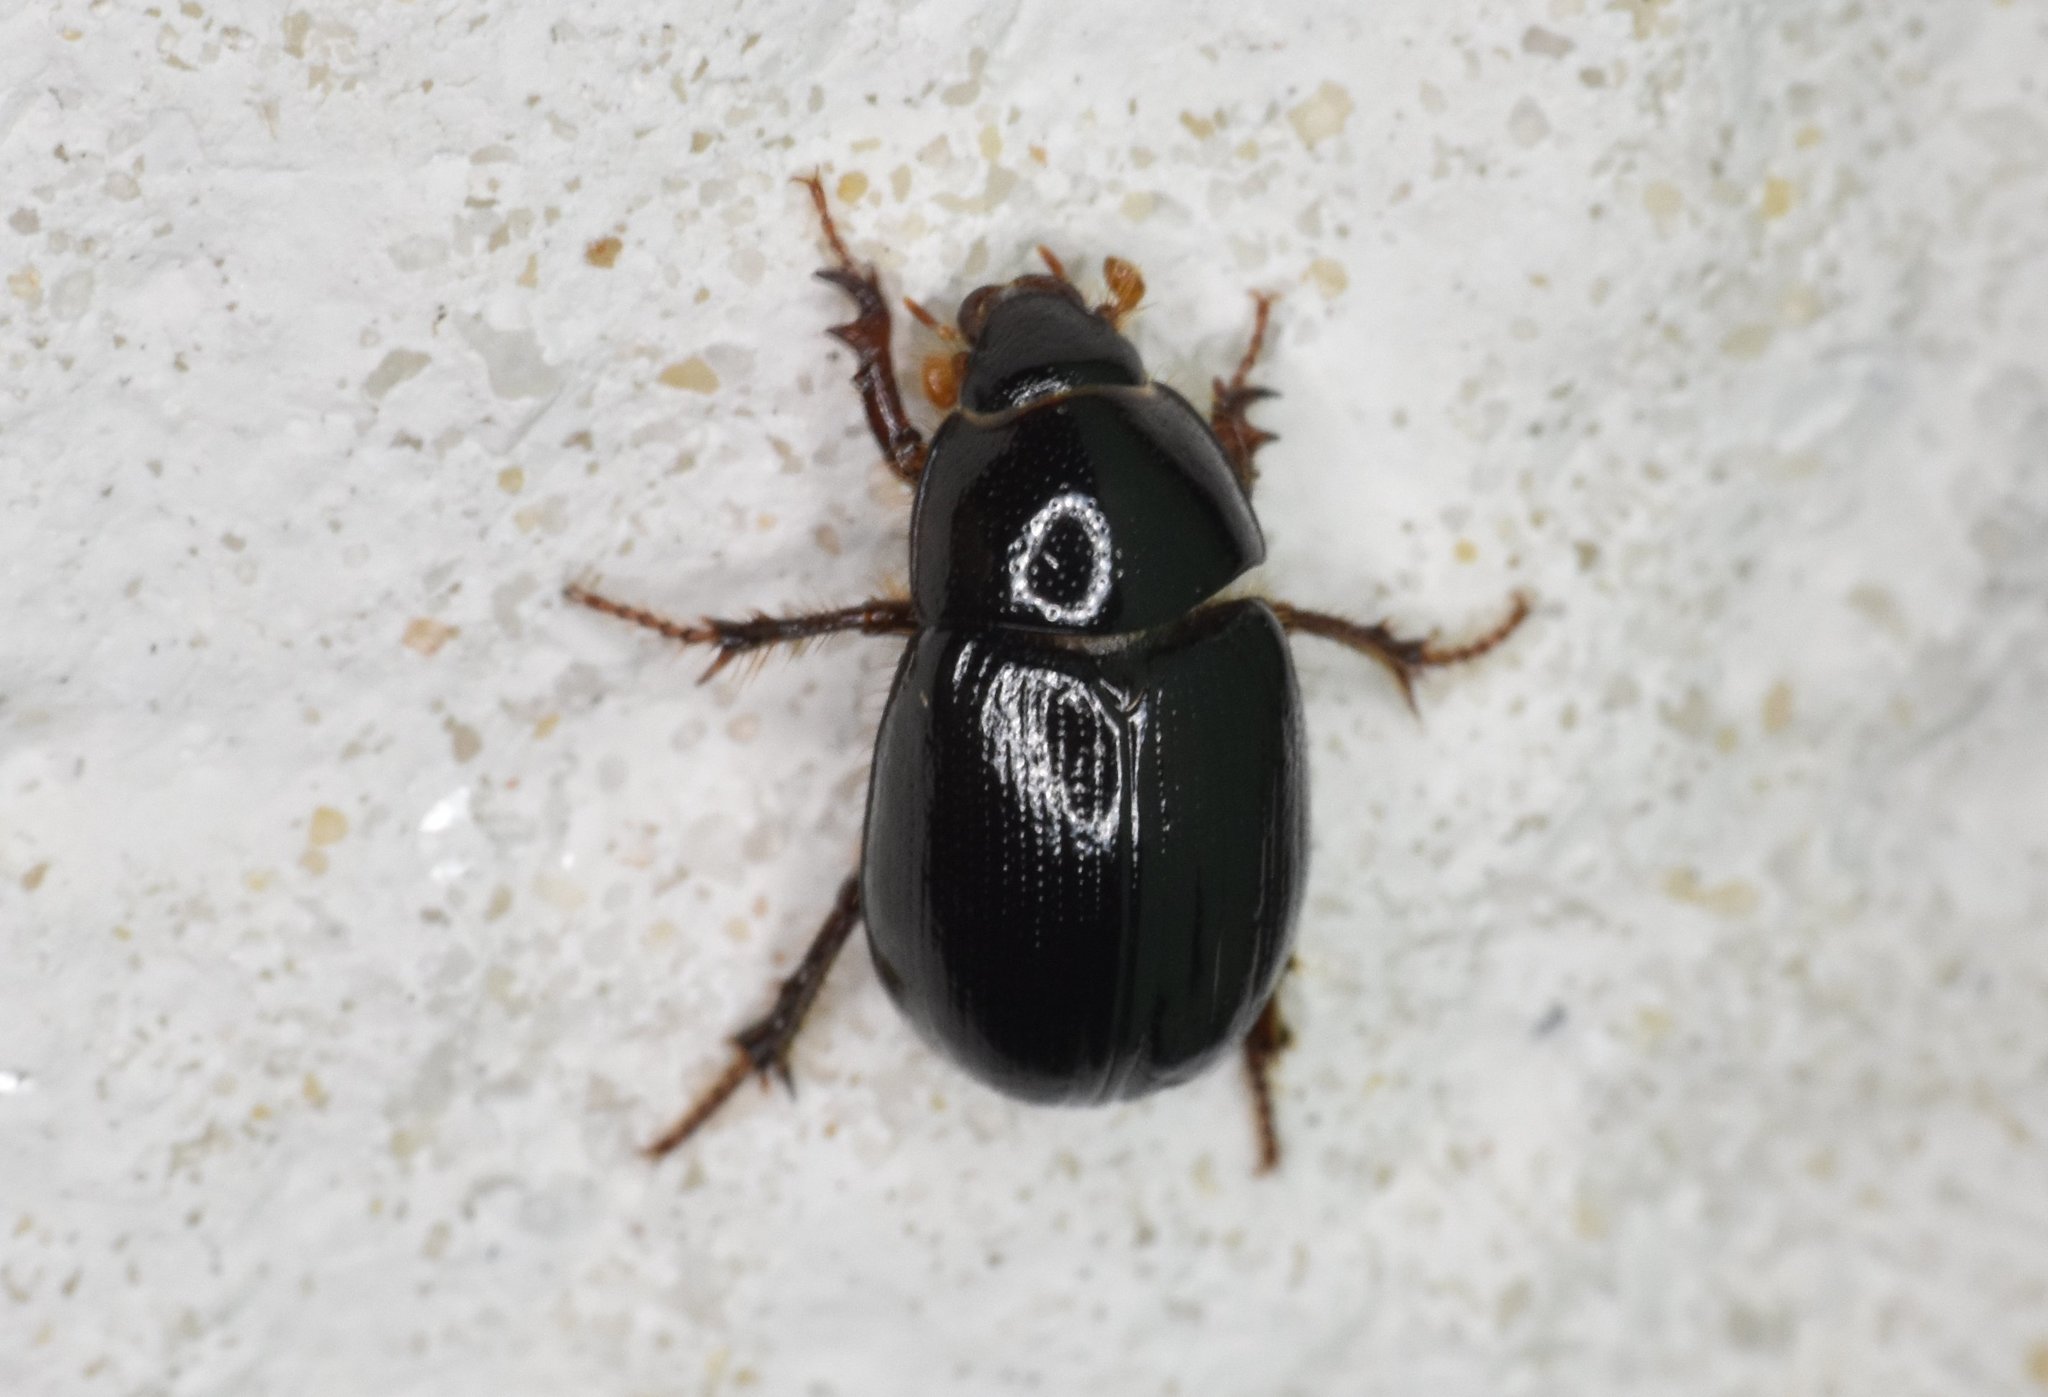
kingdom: Animalia
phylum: Arthropoda
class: Insecta
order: Coleoptera
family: Hybosoridae
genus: Hybosorus
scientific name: Hybosorus illigeri
